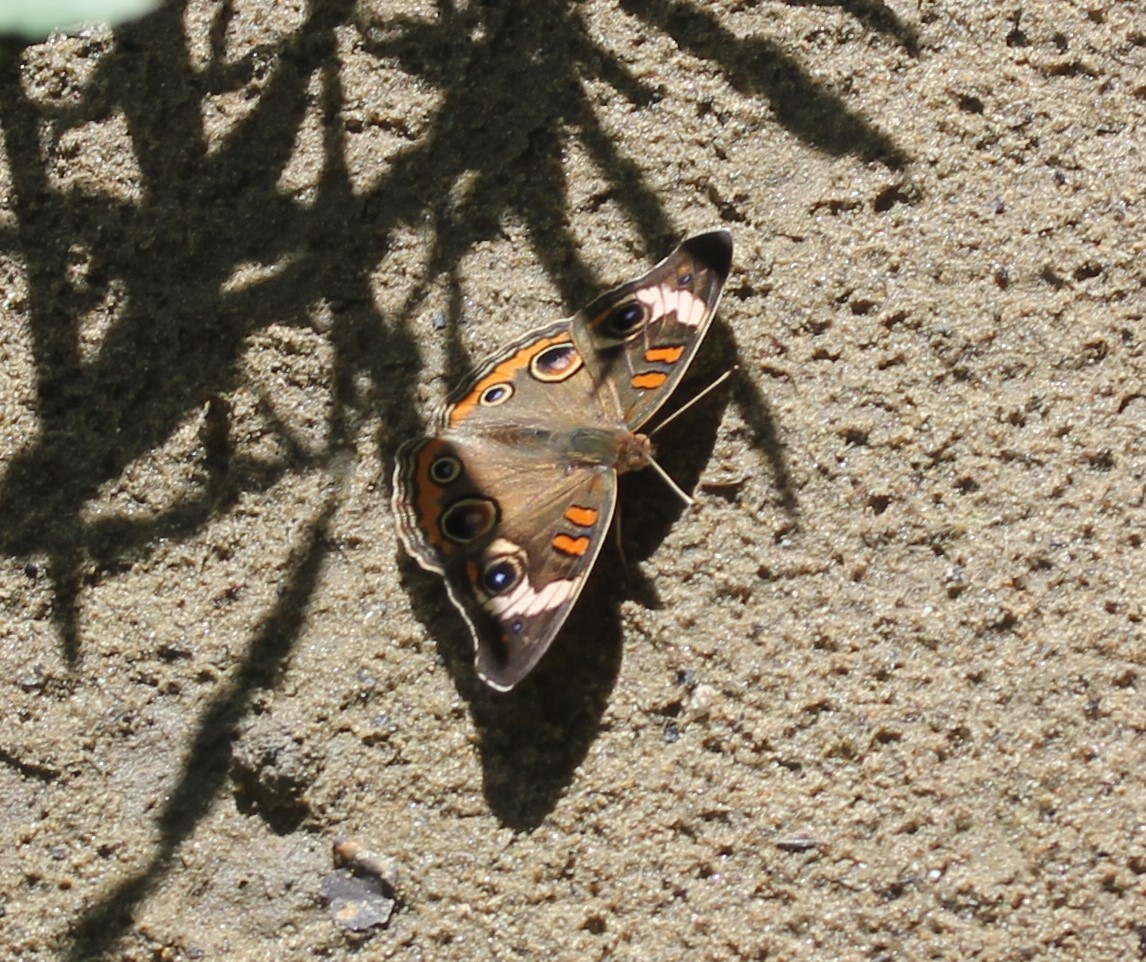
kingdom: Animalia
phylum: Arthropoda
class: Insecta
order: Lepidoptera
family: Nymphalidae
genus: Junonia
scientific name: Junonia coenia
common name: Common buckeye
